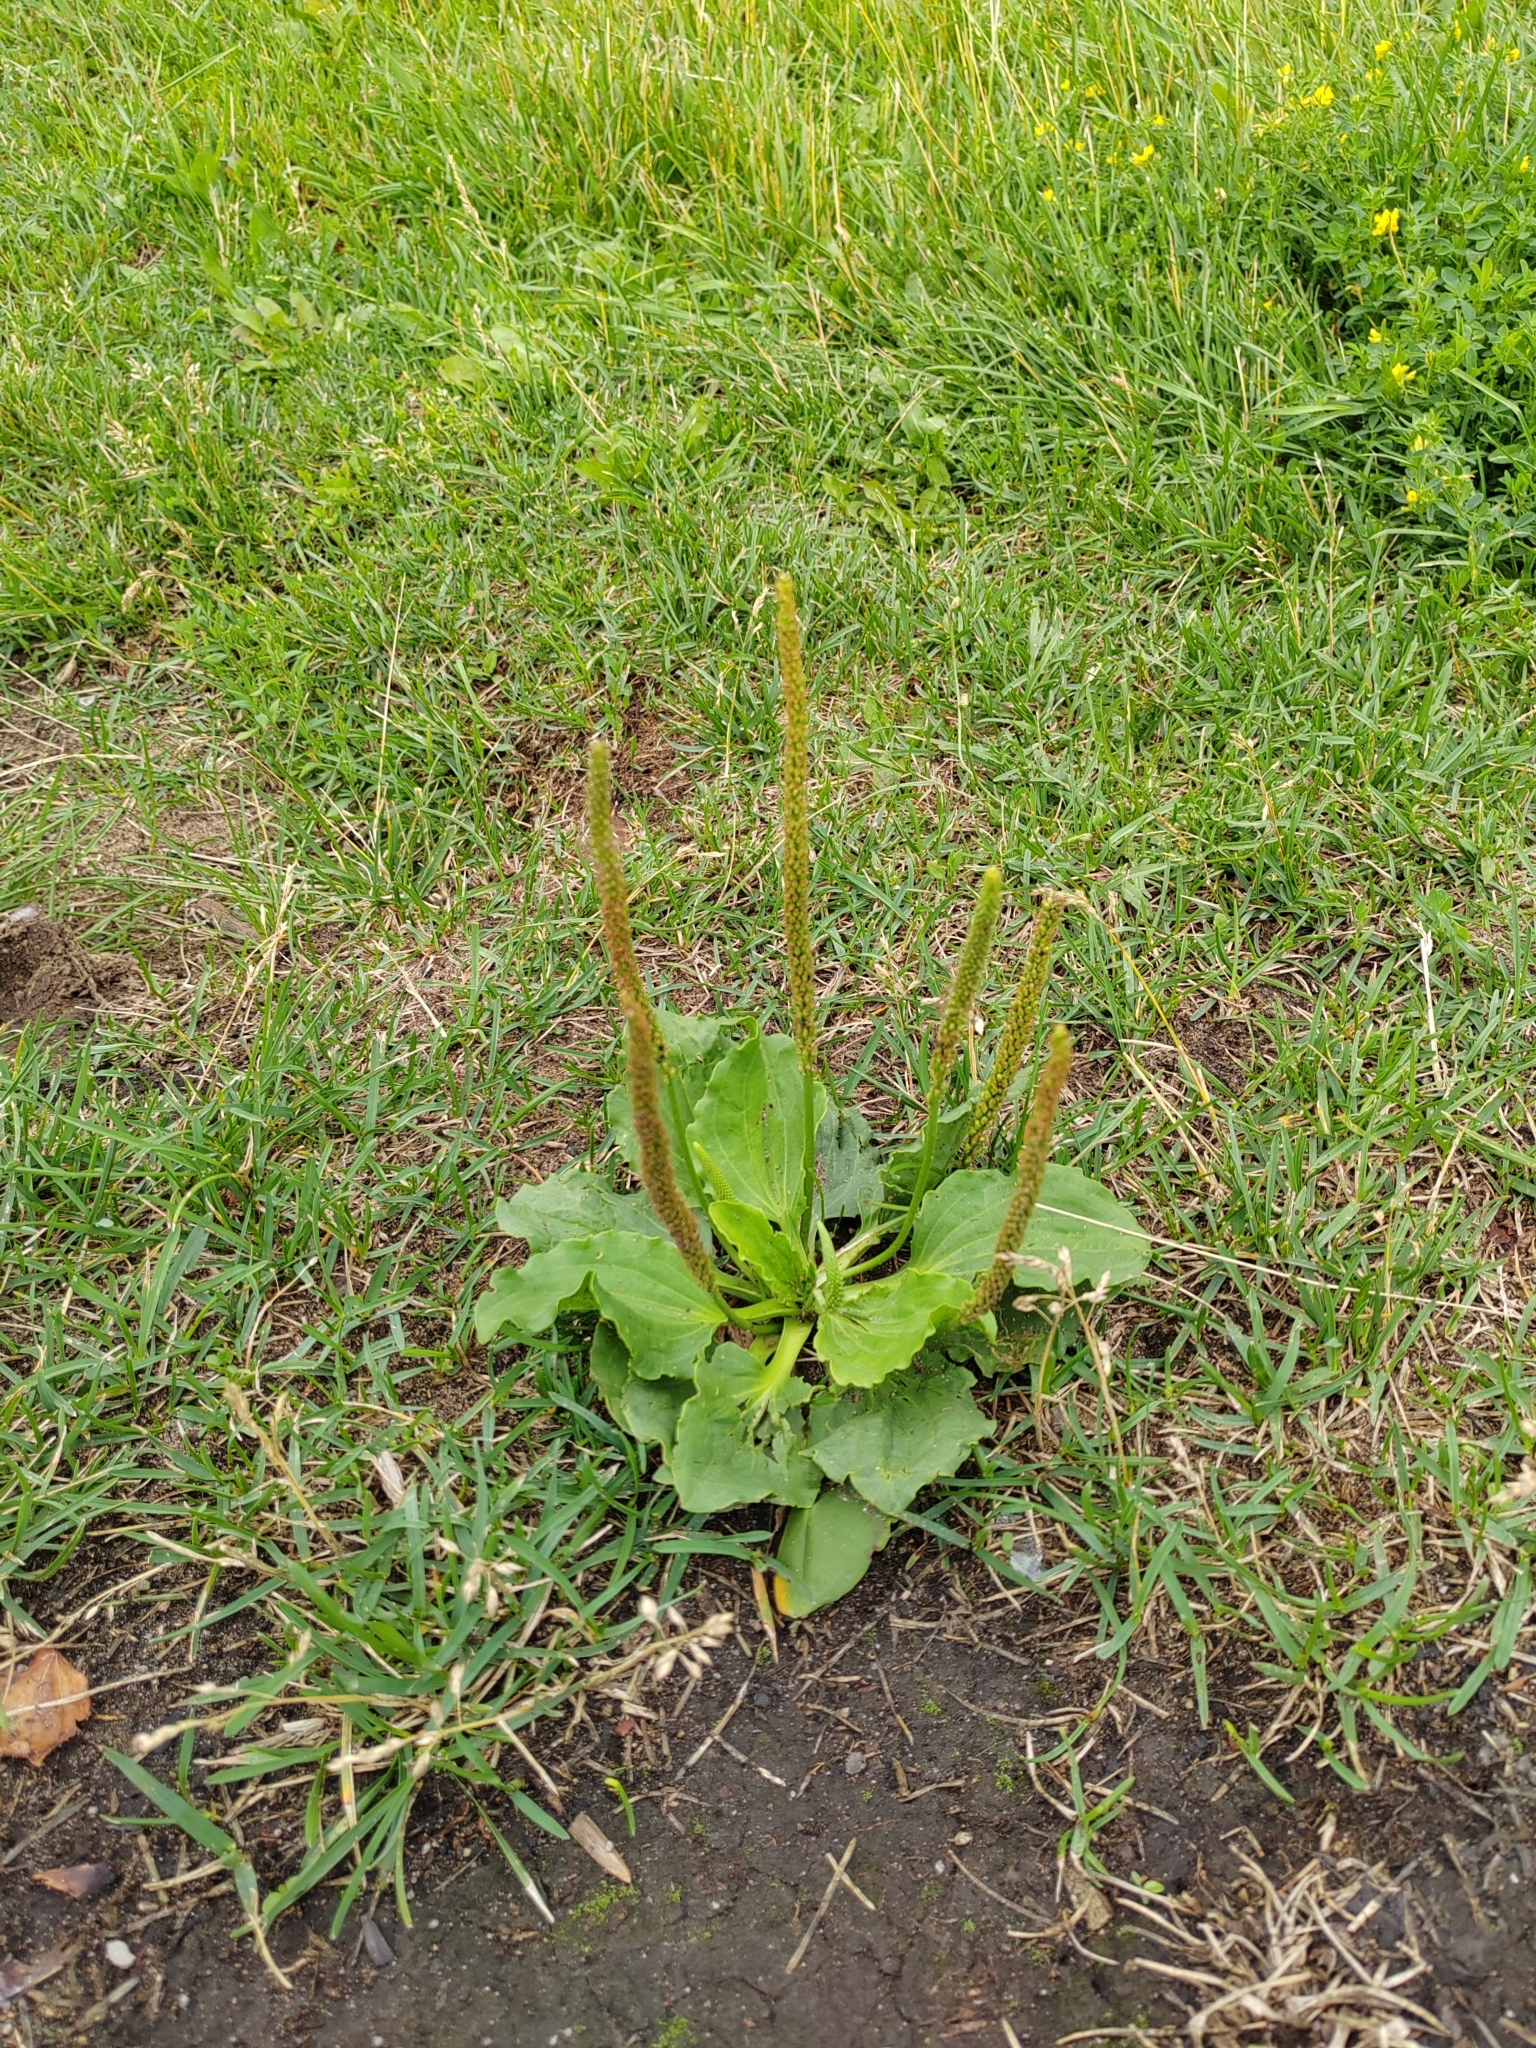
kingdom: Plantae
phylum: Tracheophyta
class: Magnoliopsida
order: Lamiales
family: Plantaginaceae
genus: Plantago
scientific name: Plantago major
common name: Common plantain
